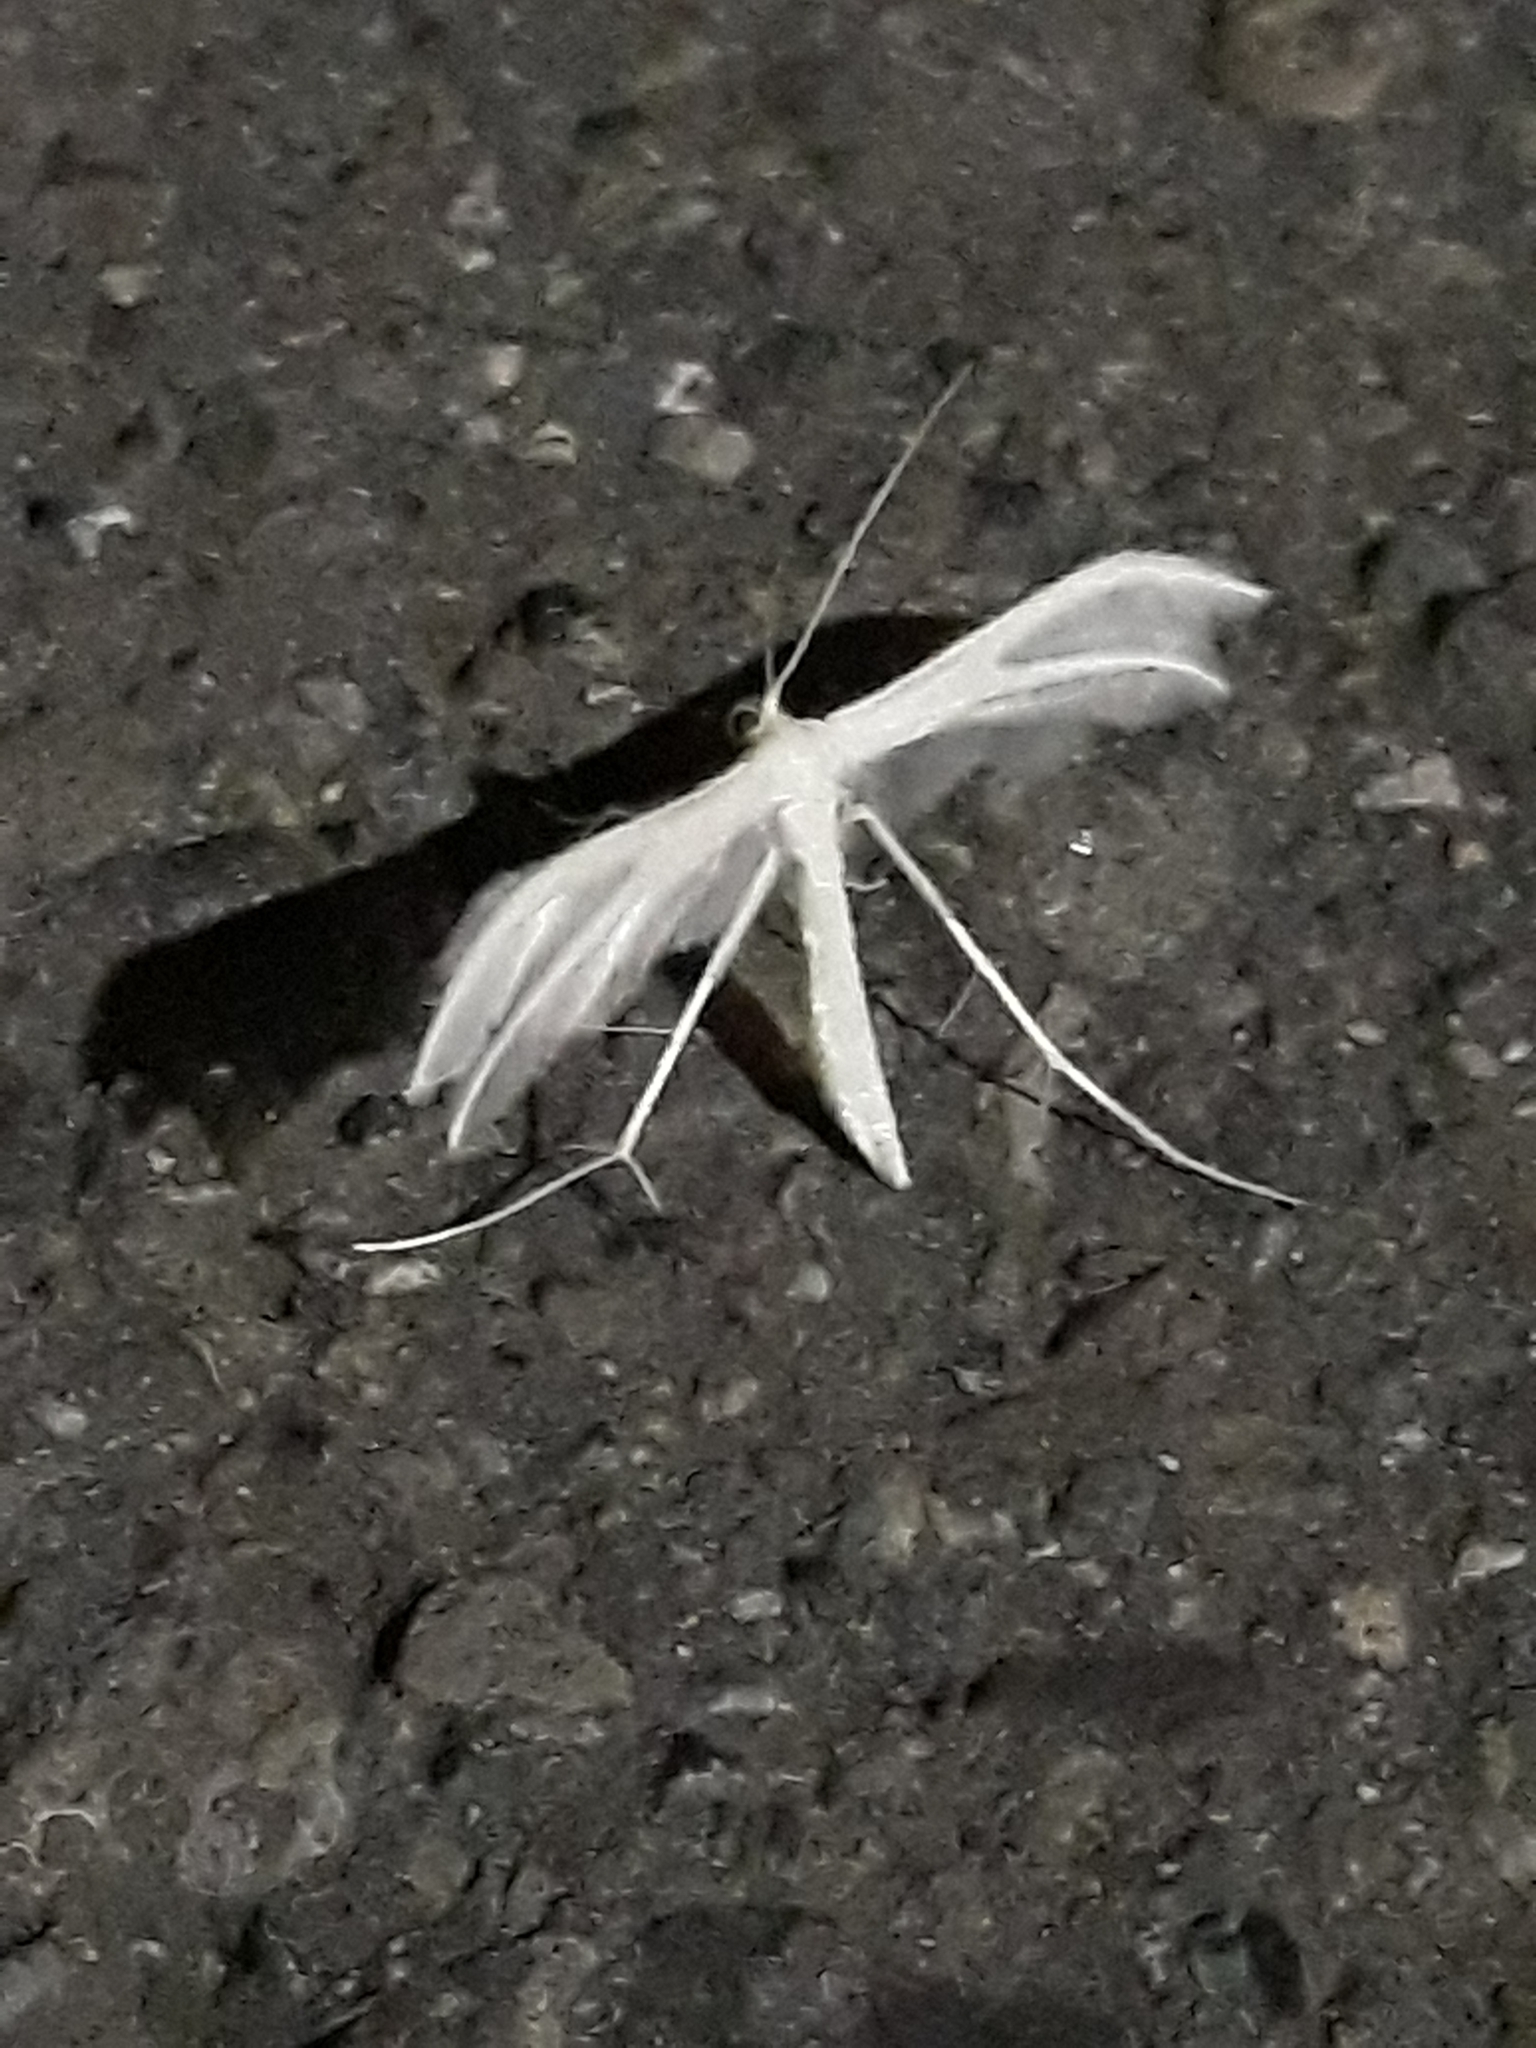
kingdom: Animalia
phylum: Arthropoda
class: Insecta
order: Lepidoptera
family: Pterophoridae
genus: Pterophorus
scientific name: Pterophorus pentadactyla
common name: White plume moth
